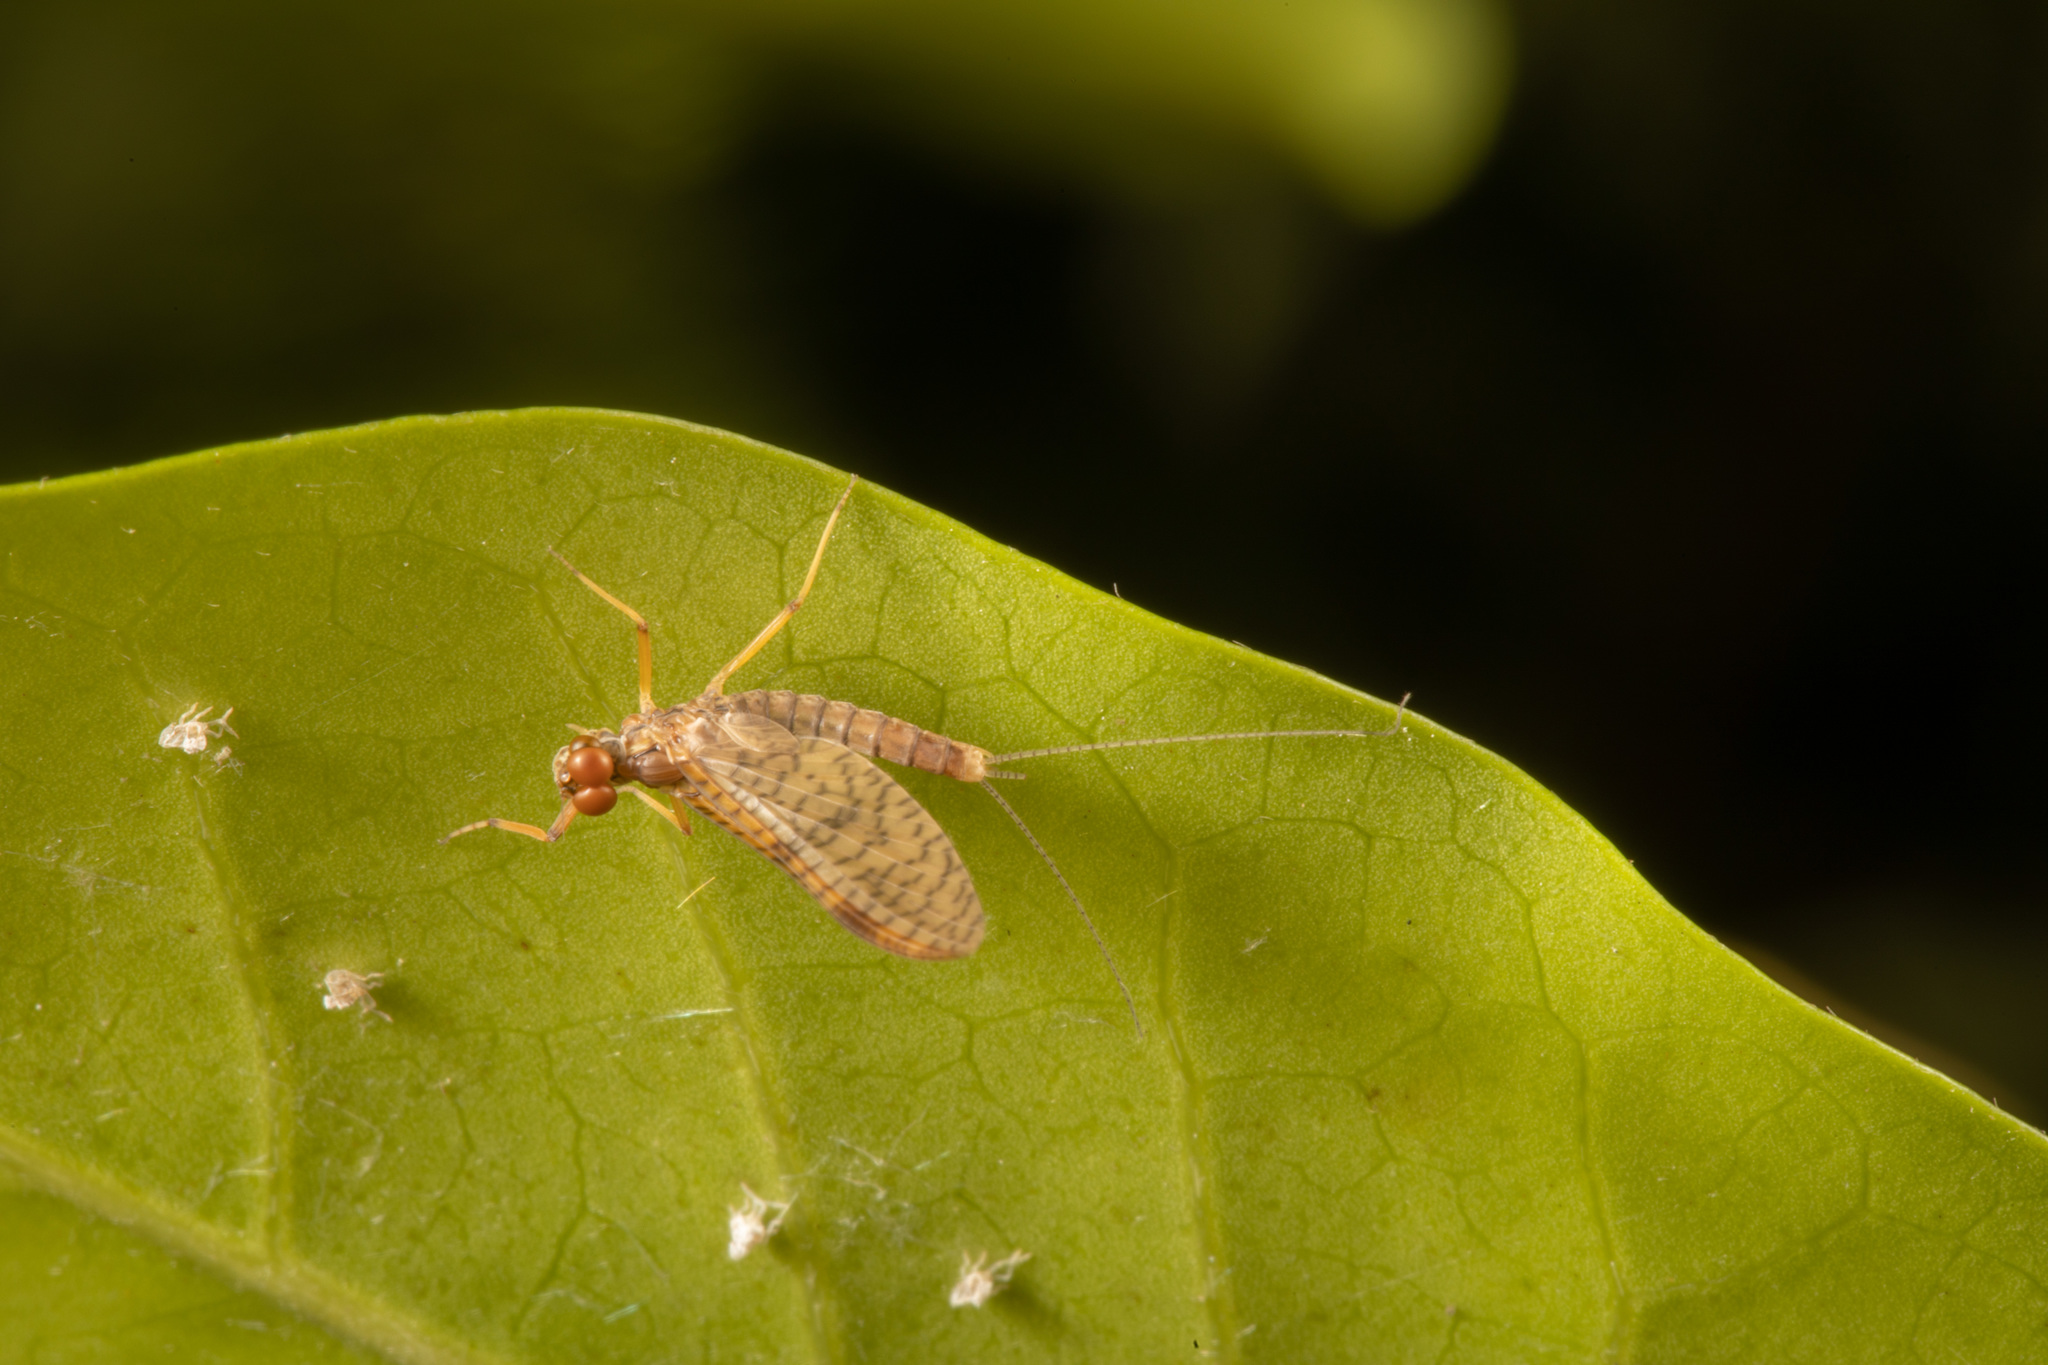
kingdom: Animalia
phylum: Arthropoda
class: Insecta
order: Ephemeroptera
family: Leptophlebiidae
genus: Zephlebia
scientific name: Zephlebia dentata
